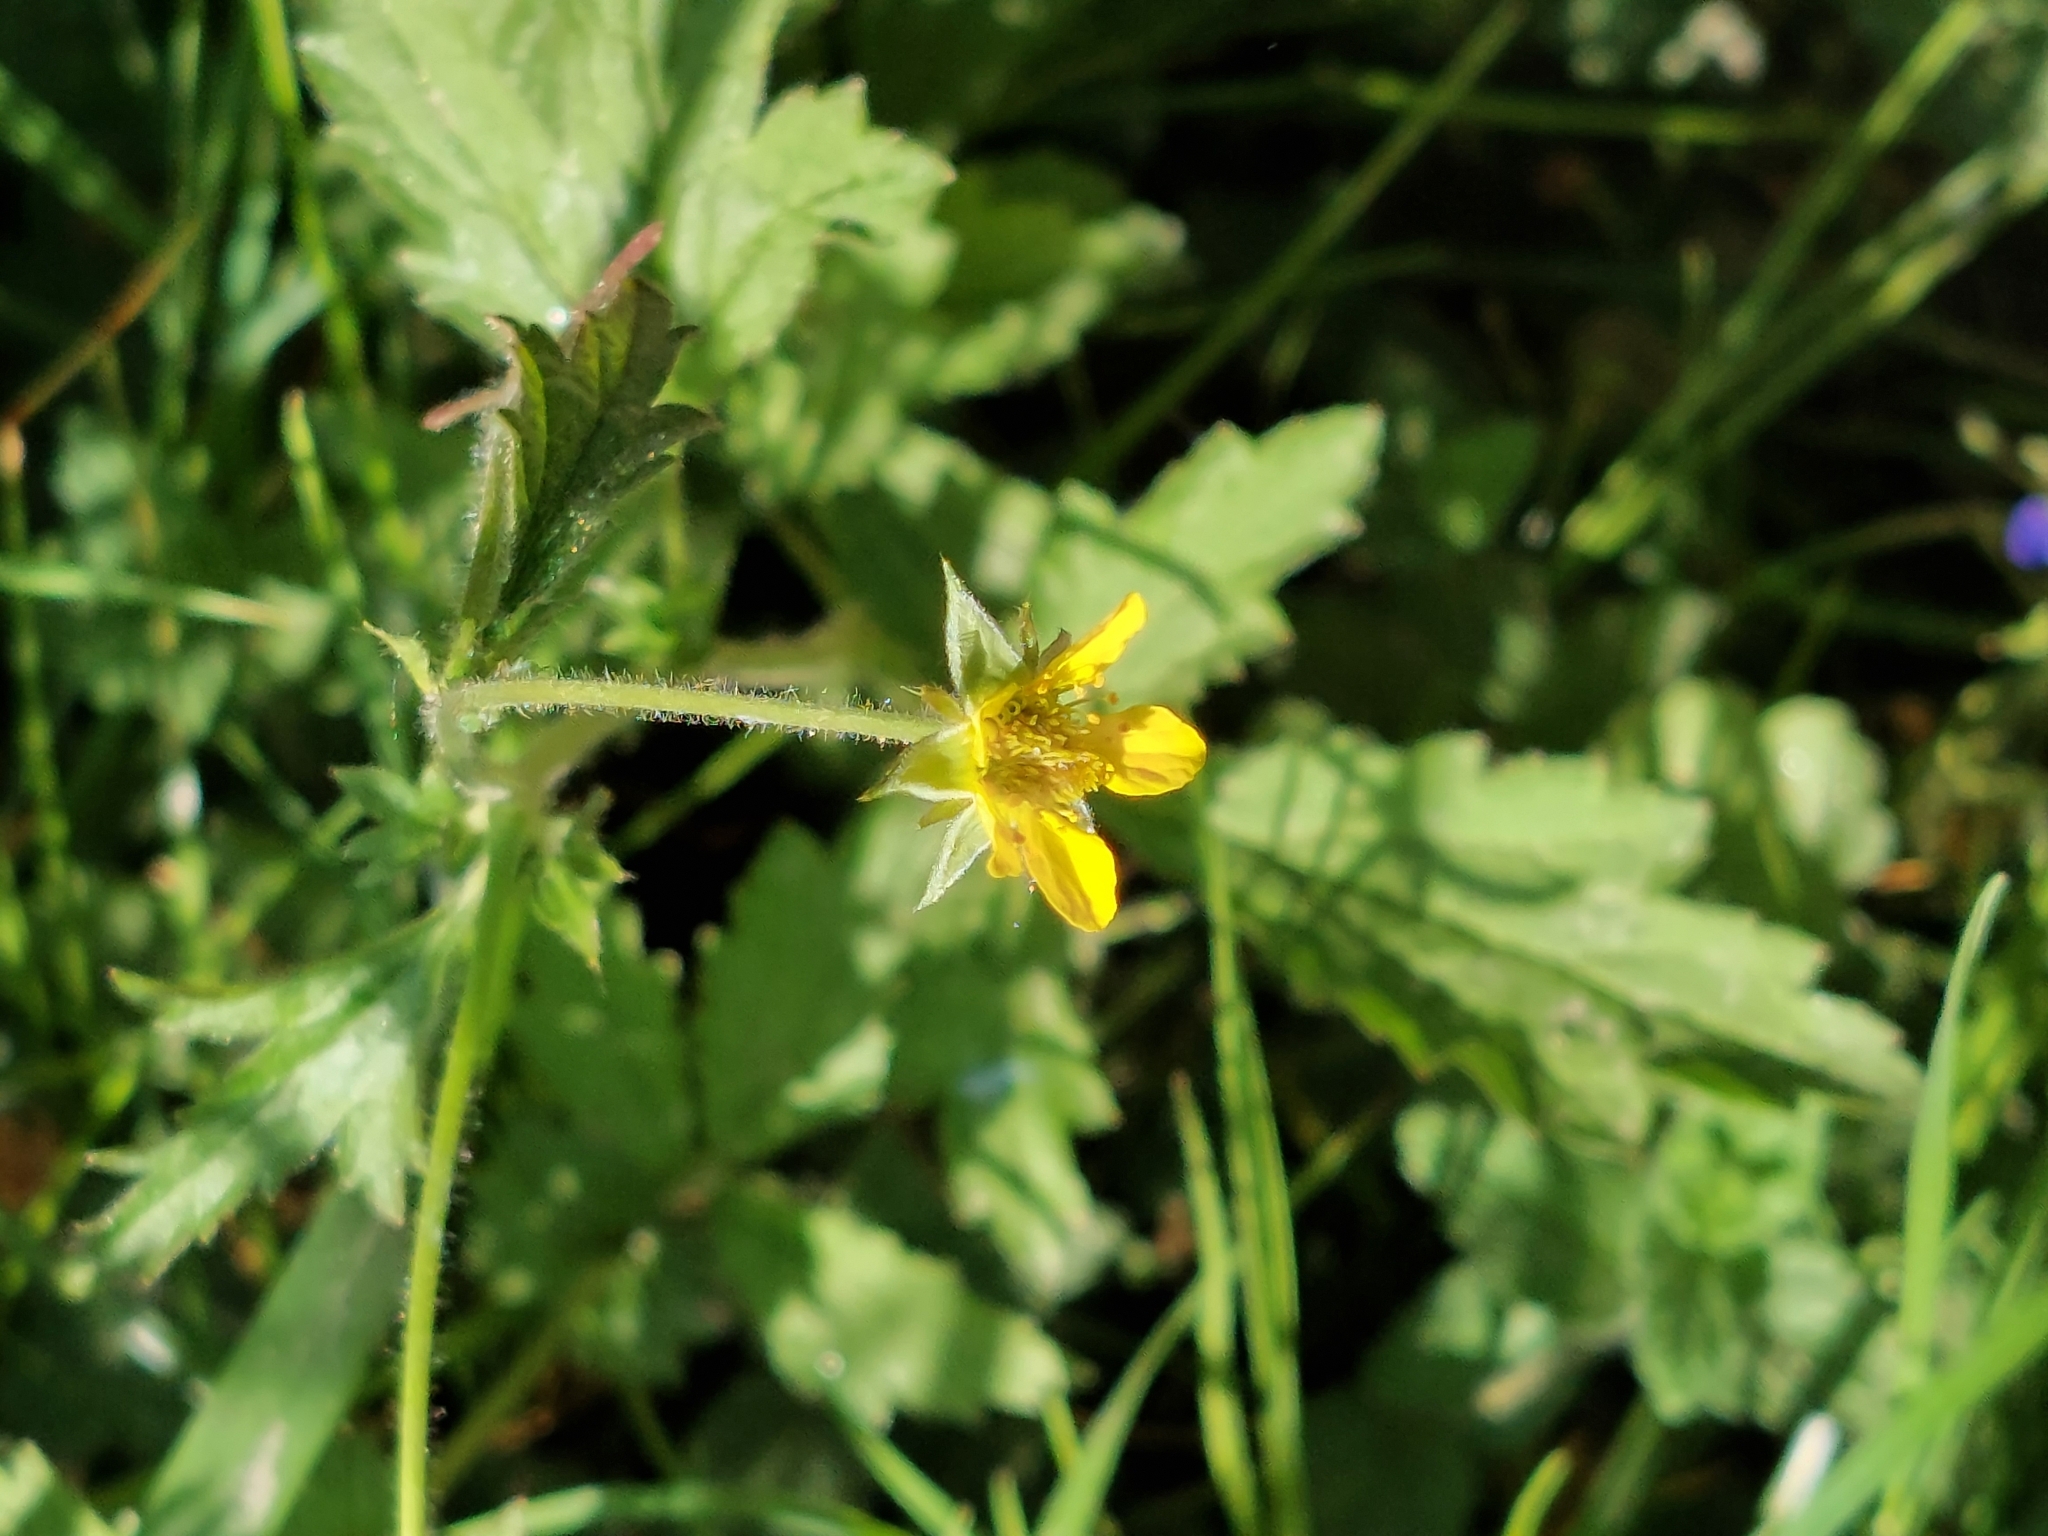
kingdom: Plantae
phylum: Tracheophyta
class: Magnoliopsida
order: Rosales
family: Rosaceae
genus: Geum
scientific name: Geum urbanum
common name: Wood avens
